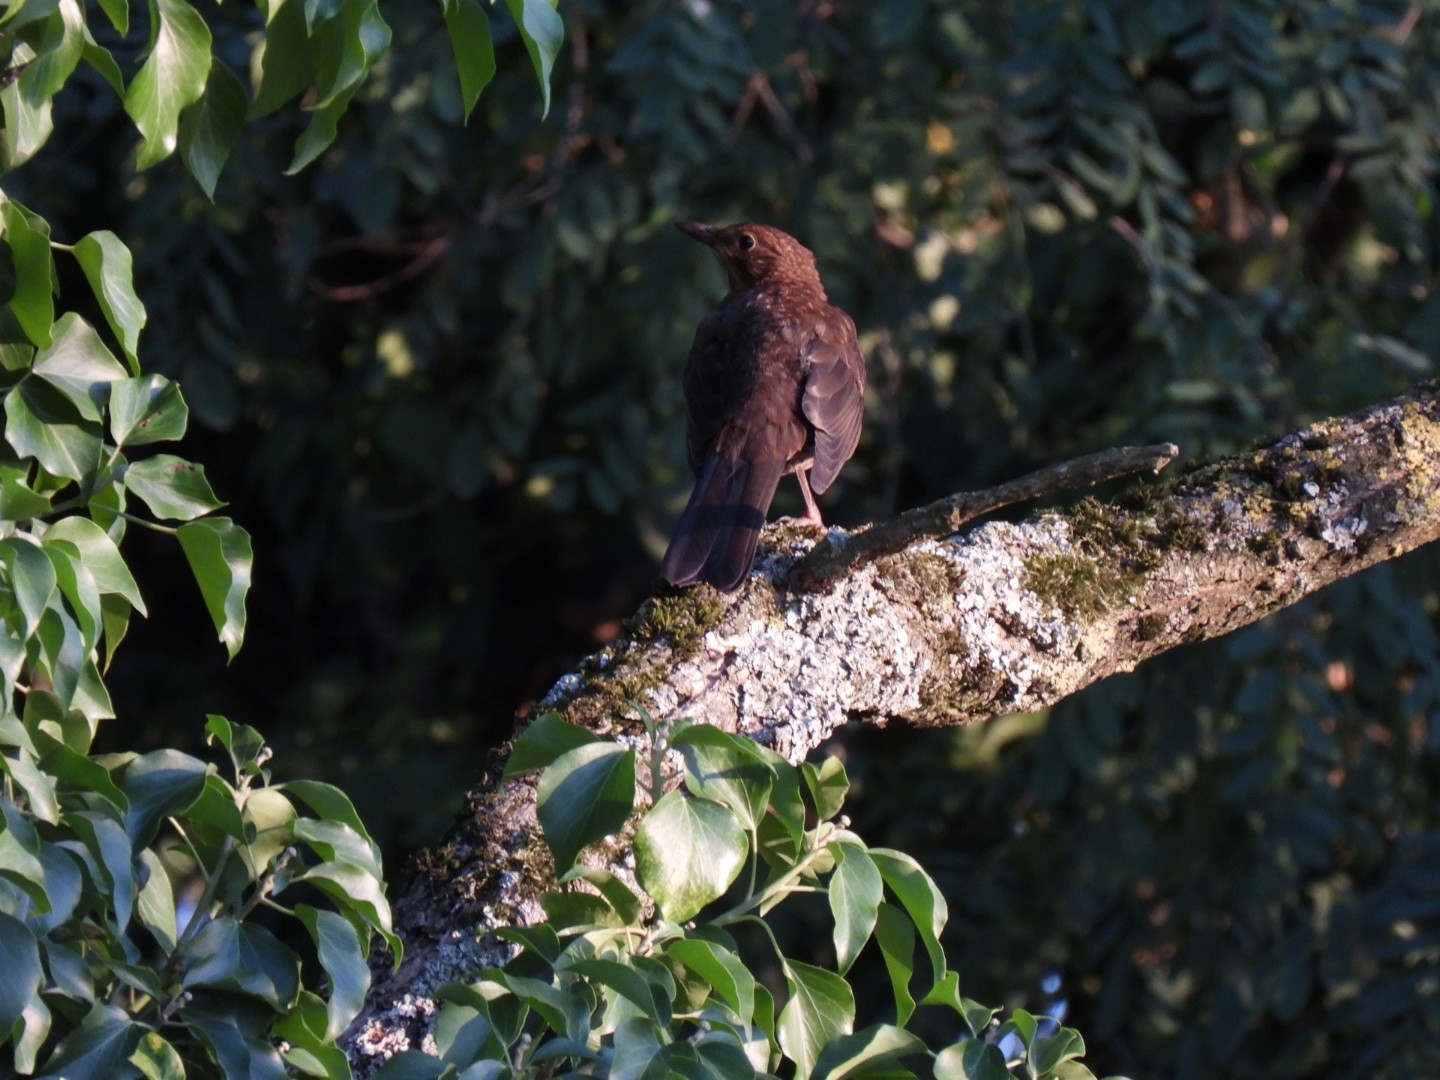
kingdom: Animalia
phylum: Chordata
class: Aves
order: Passeriformes
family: Turdidae
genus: Turdus
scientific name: Turdus merula
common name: Common blackbird
